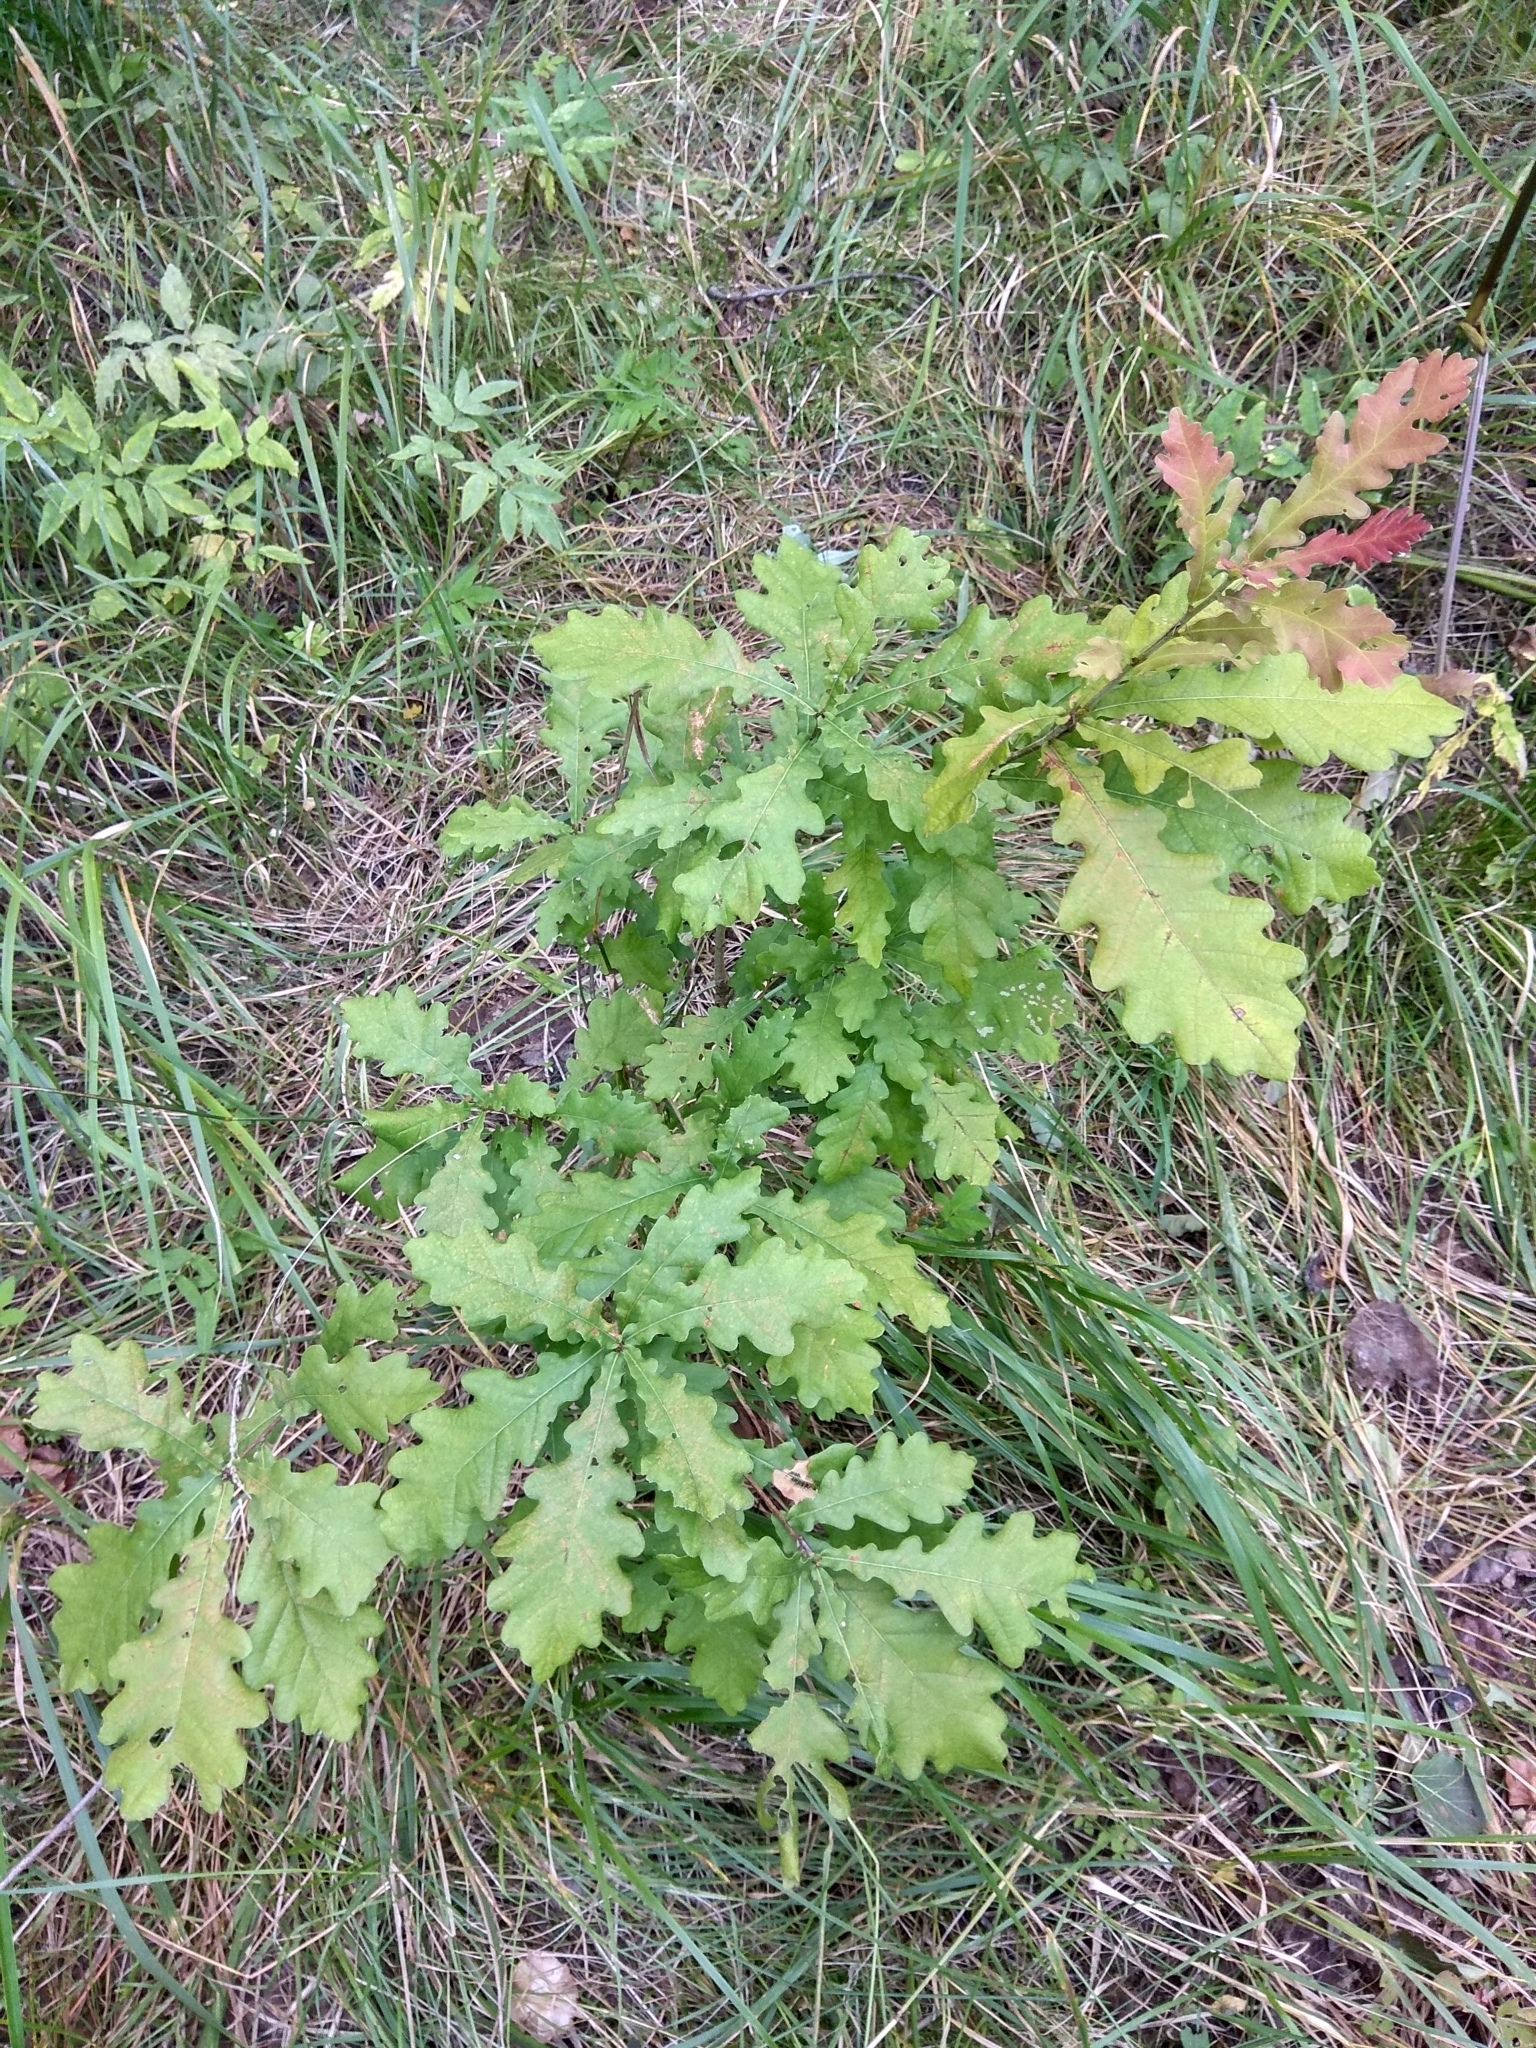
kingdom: Plantae
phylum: Tracheophyta
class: Magnoliopsida
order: Fagales
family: Fagaceae
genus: Quercus
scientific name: Quercus robur
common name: Pedunculate oak
